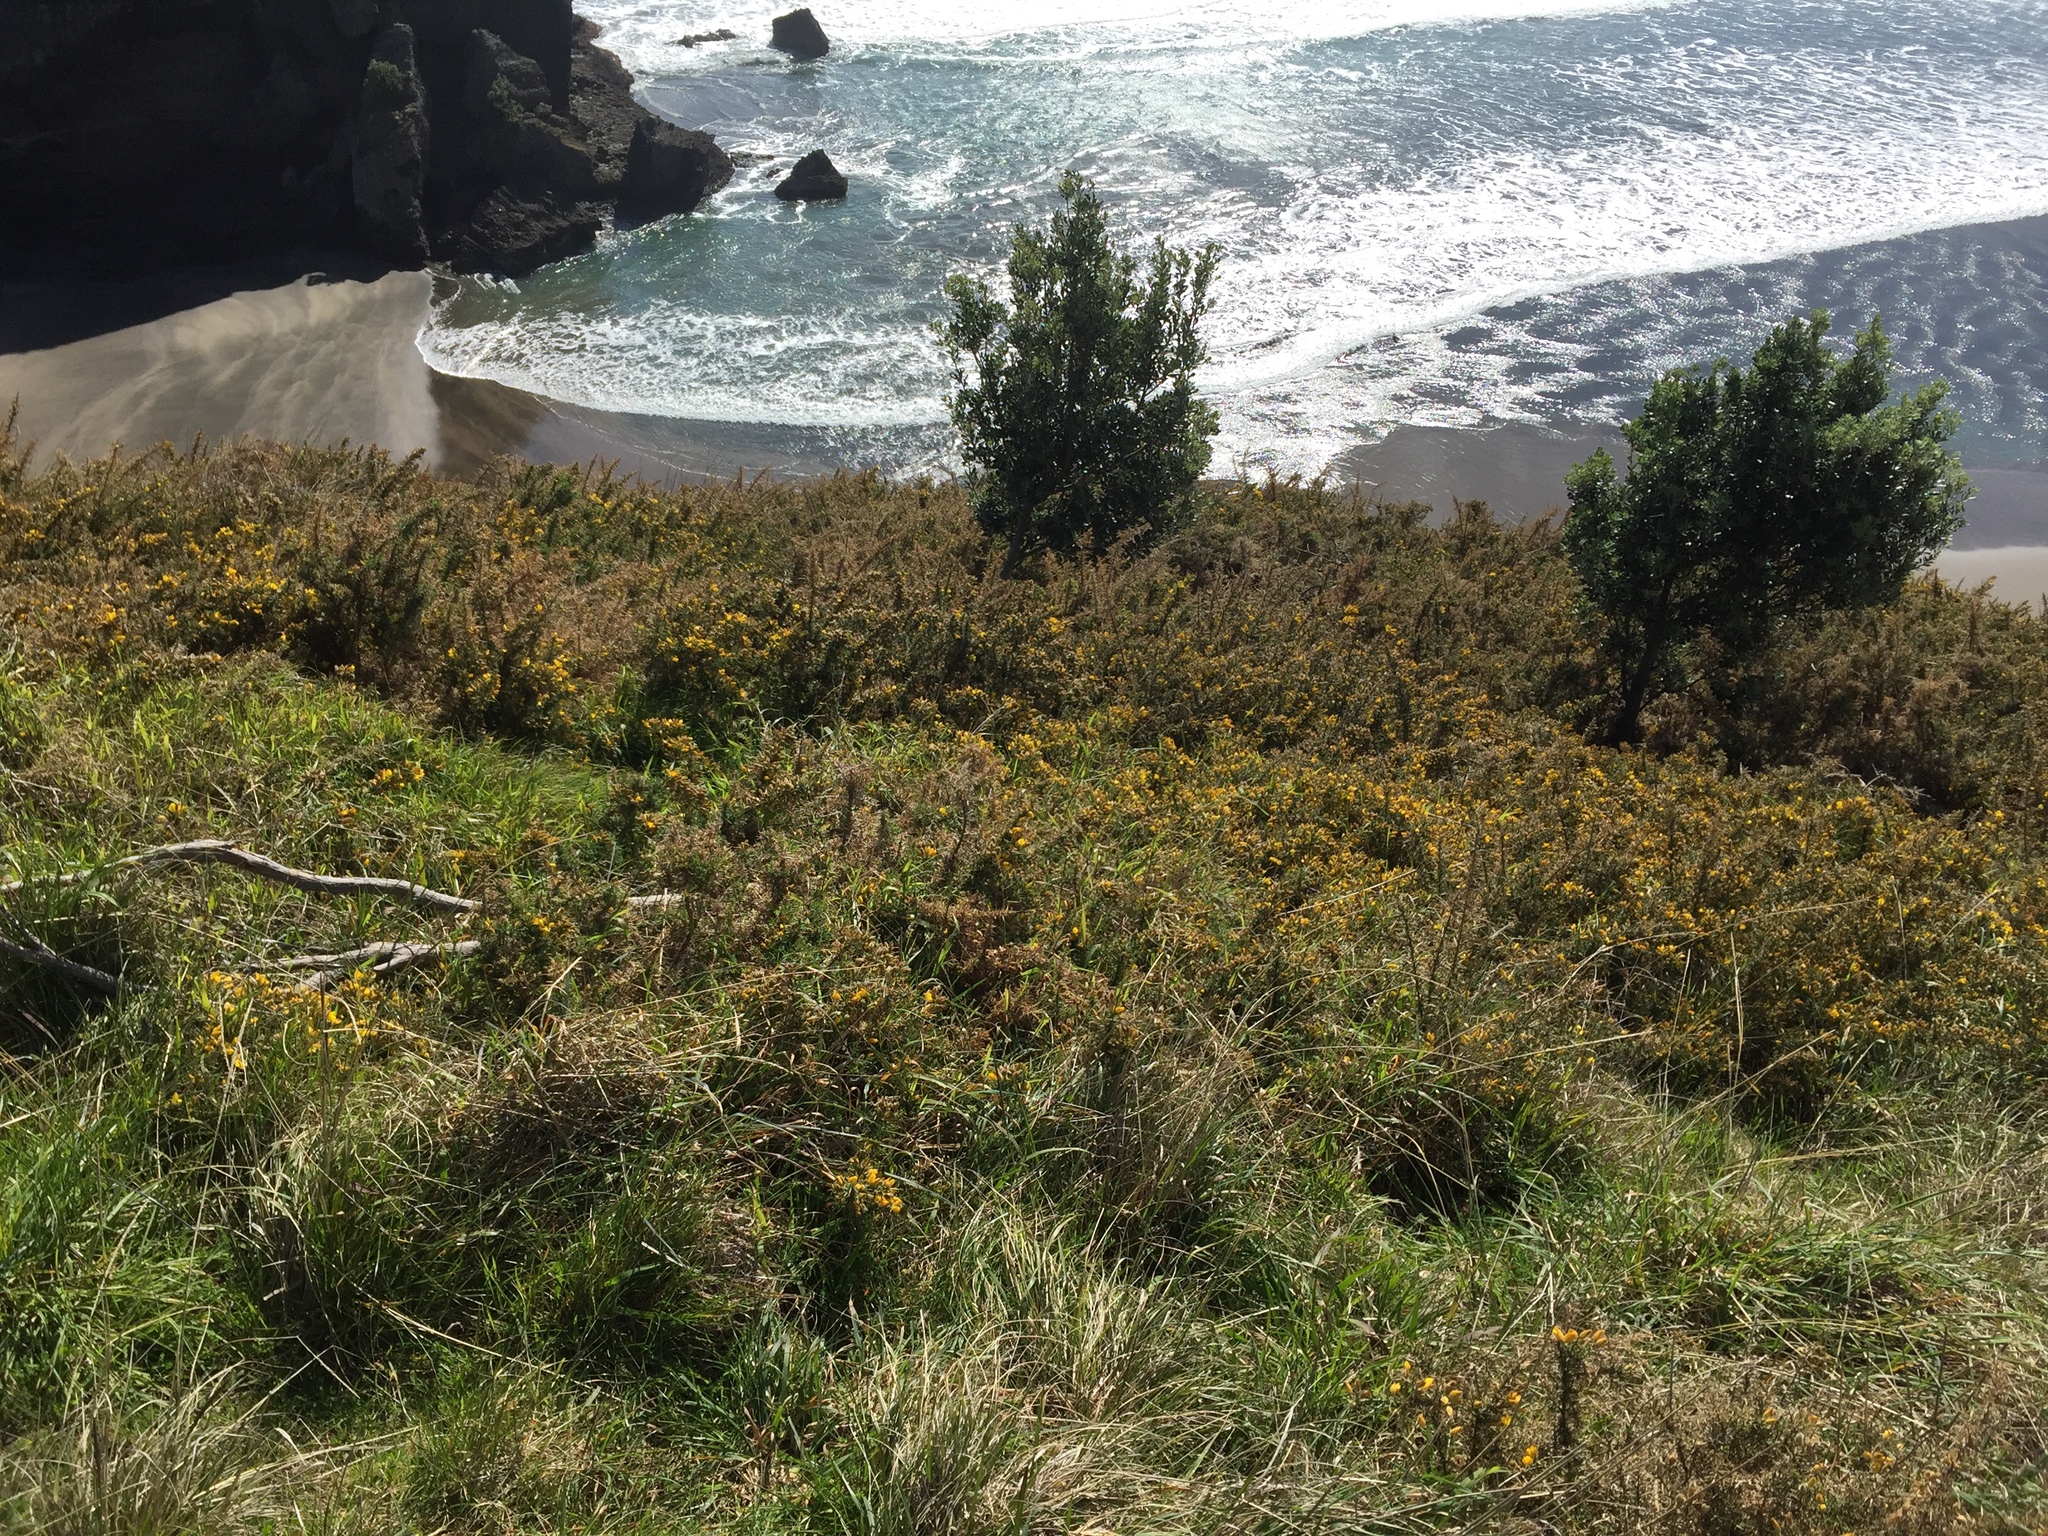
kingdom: Plantae
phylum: Tracheophyta
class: Magnoliopsida
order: Fabales
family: Fabaceae
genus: Ulex
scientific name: Ulex europaeus
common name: Common gorse
